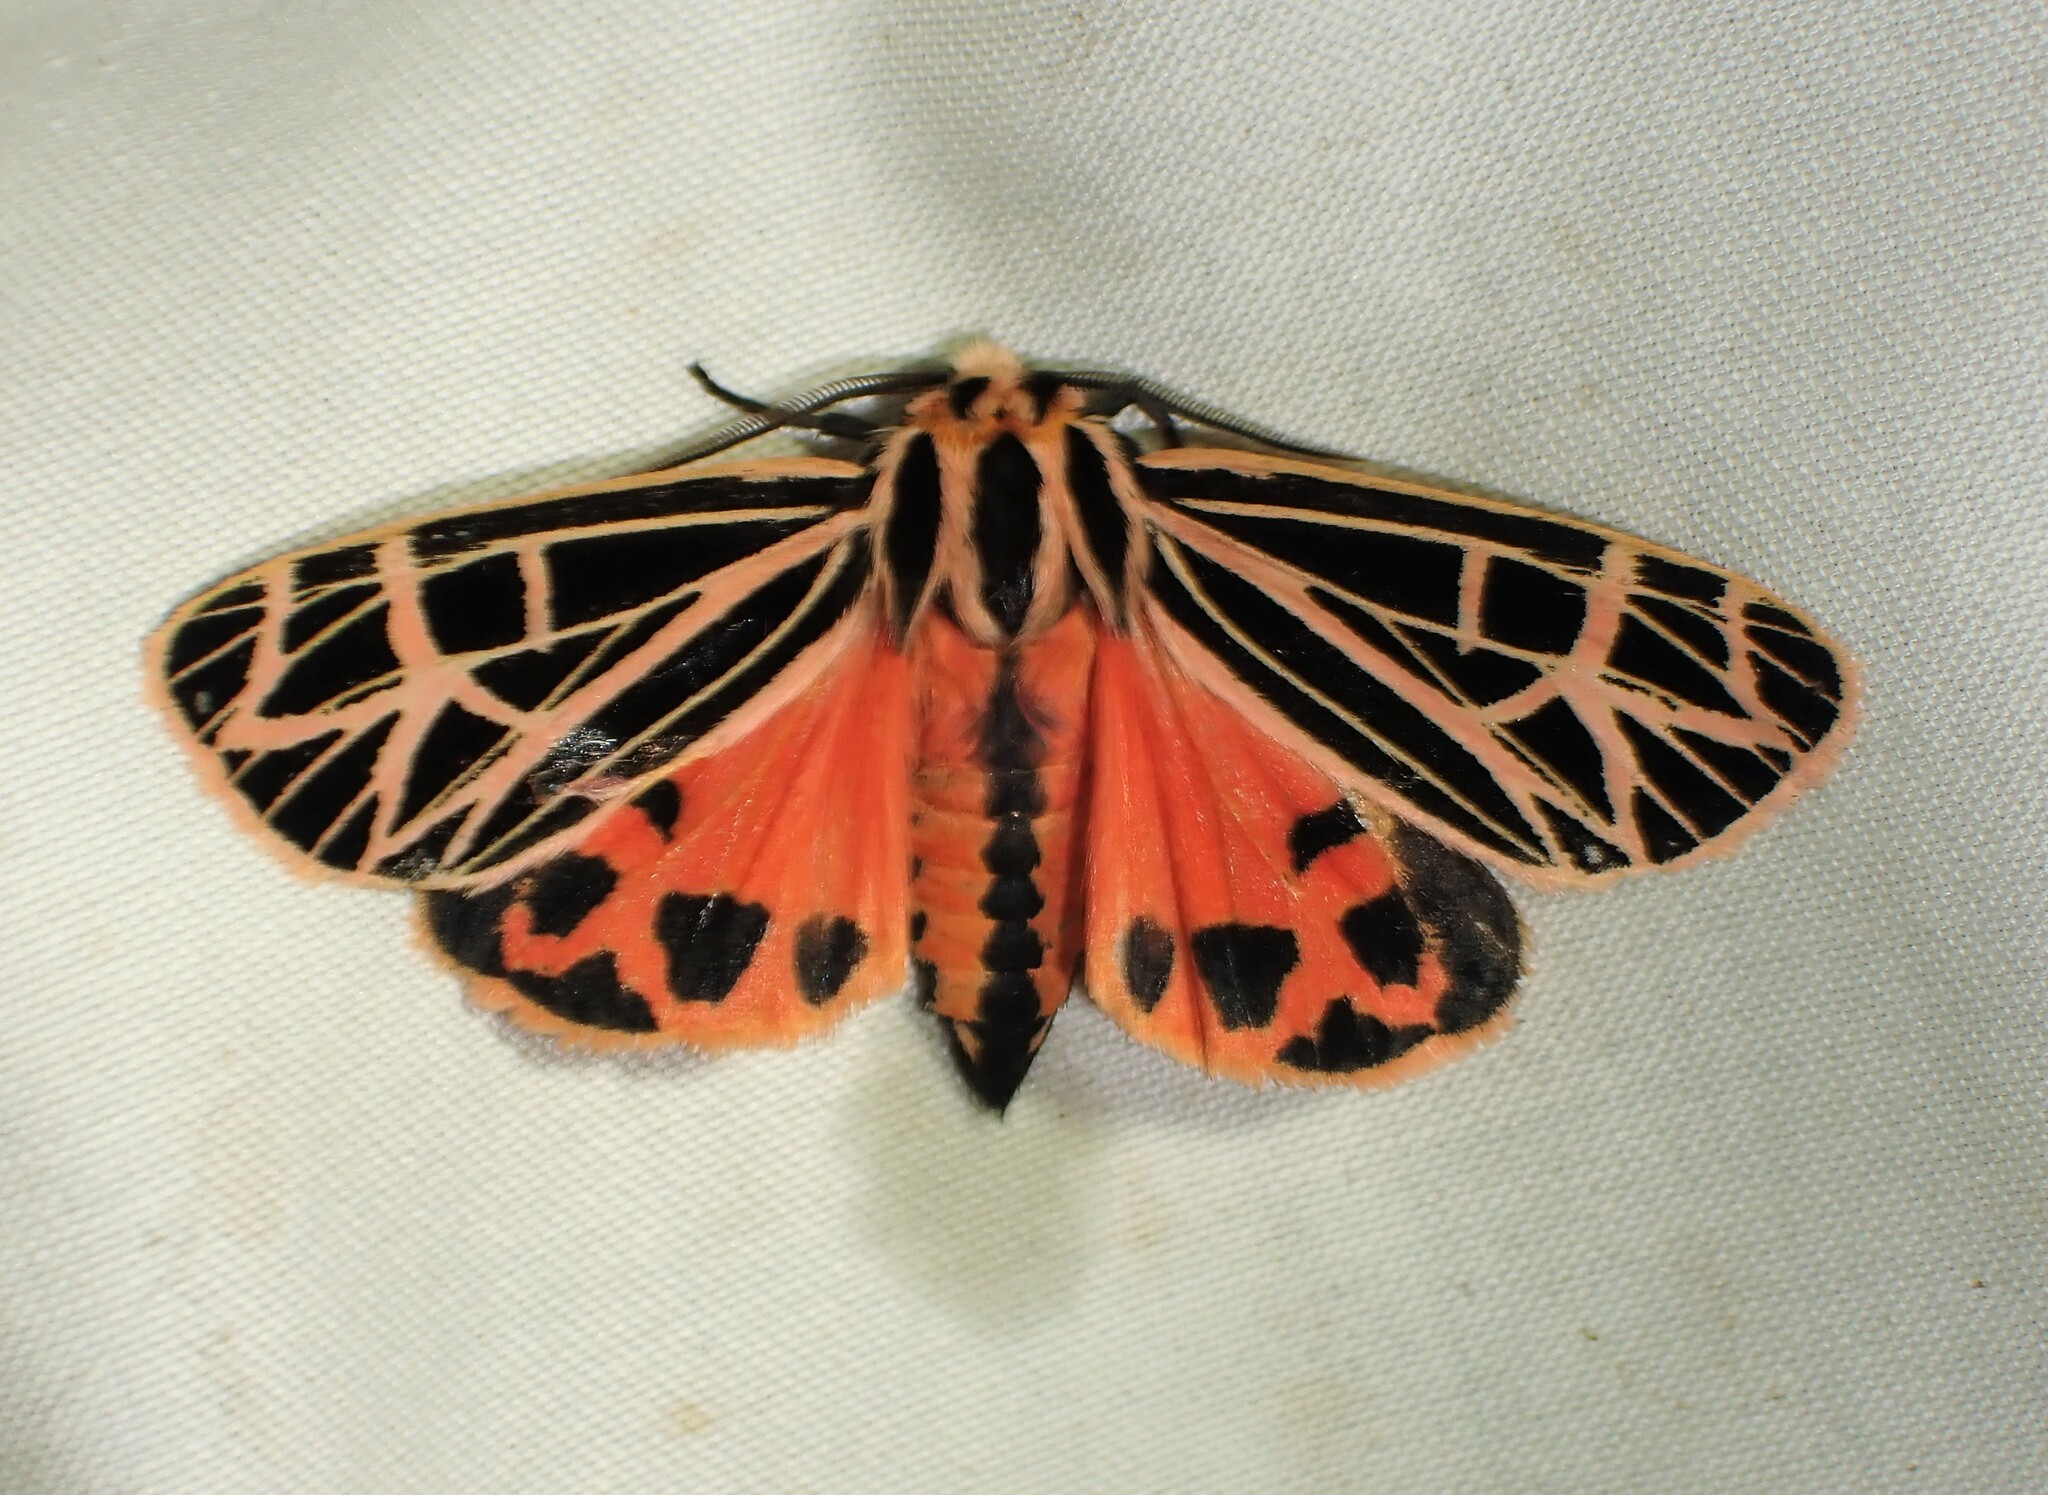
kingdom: Animalia
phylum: Arthropoda
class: Insecta
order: Lepidoptera
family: Erebidae
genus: Grammia
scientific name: Grammia parthenice
